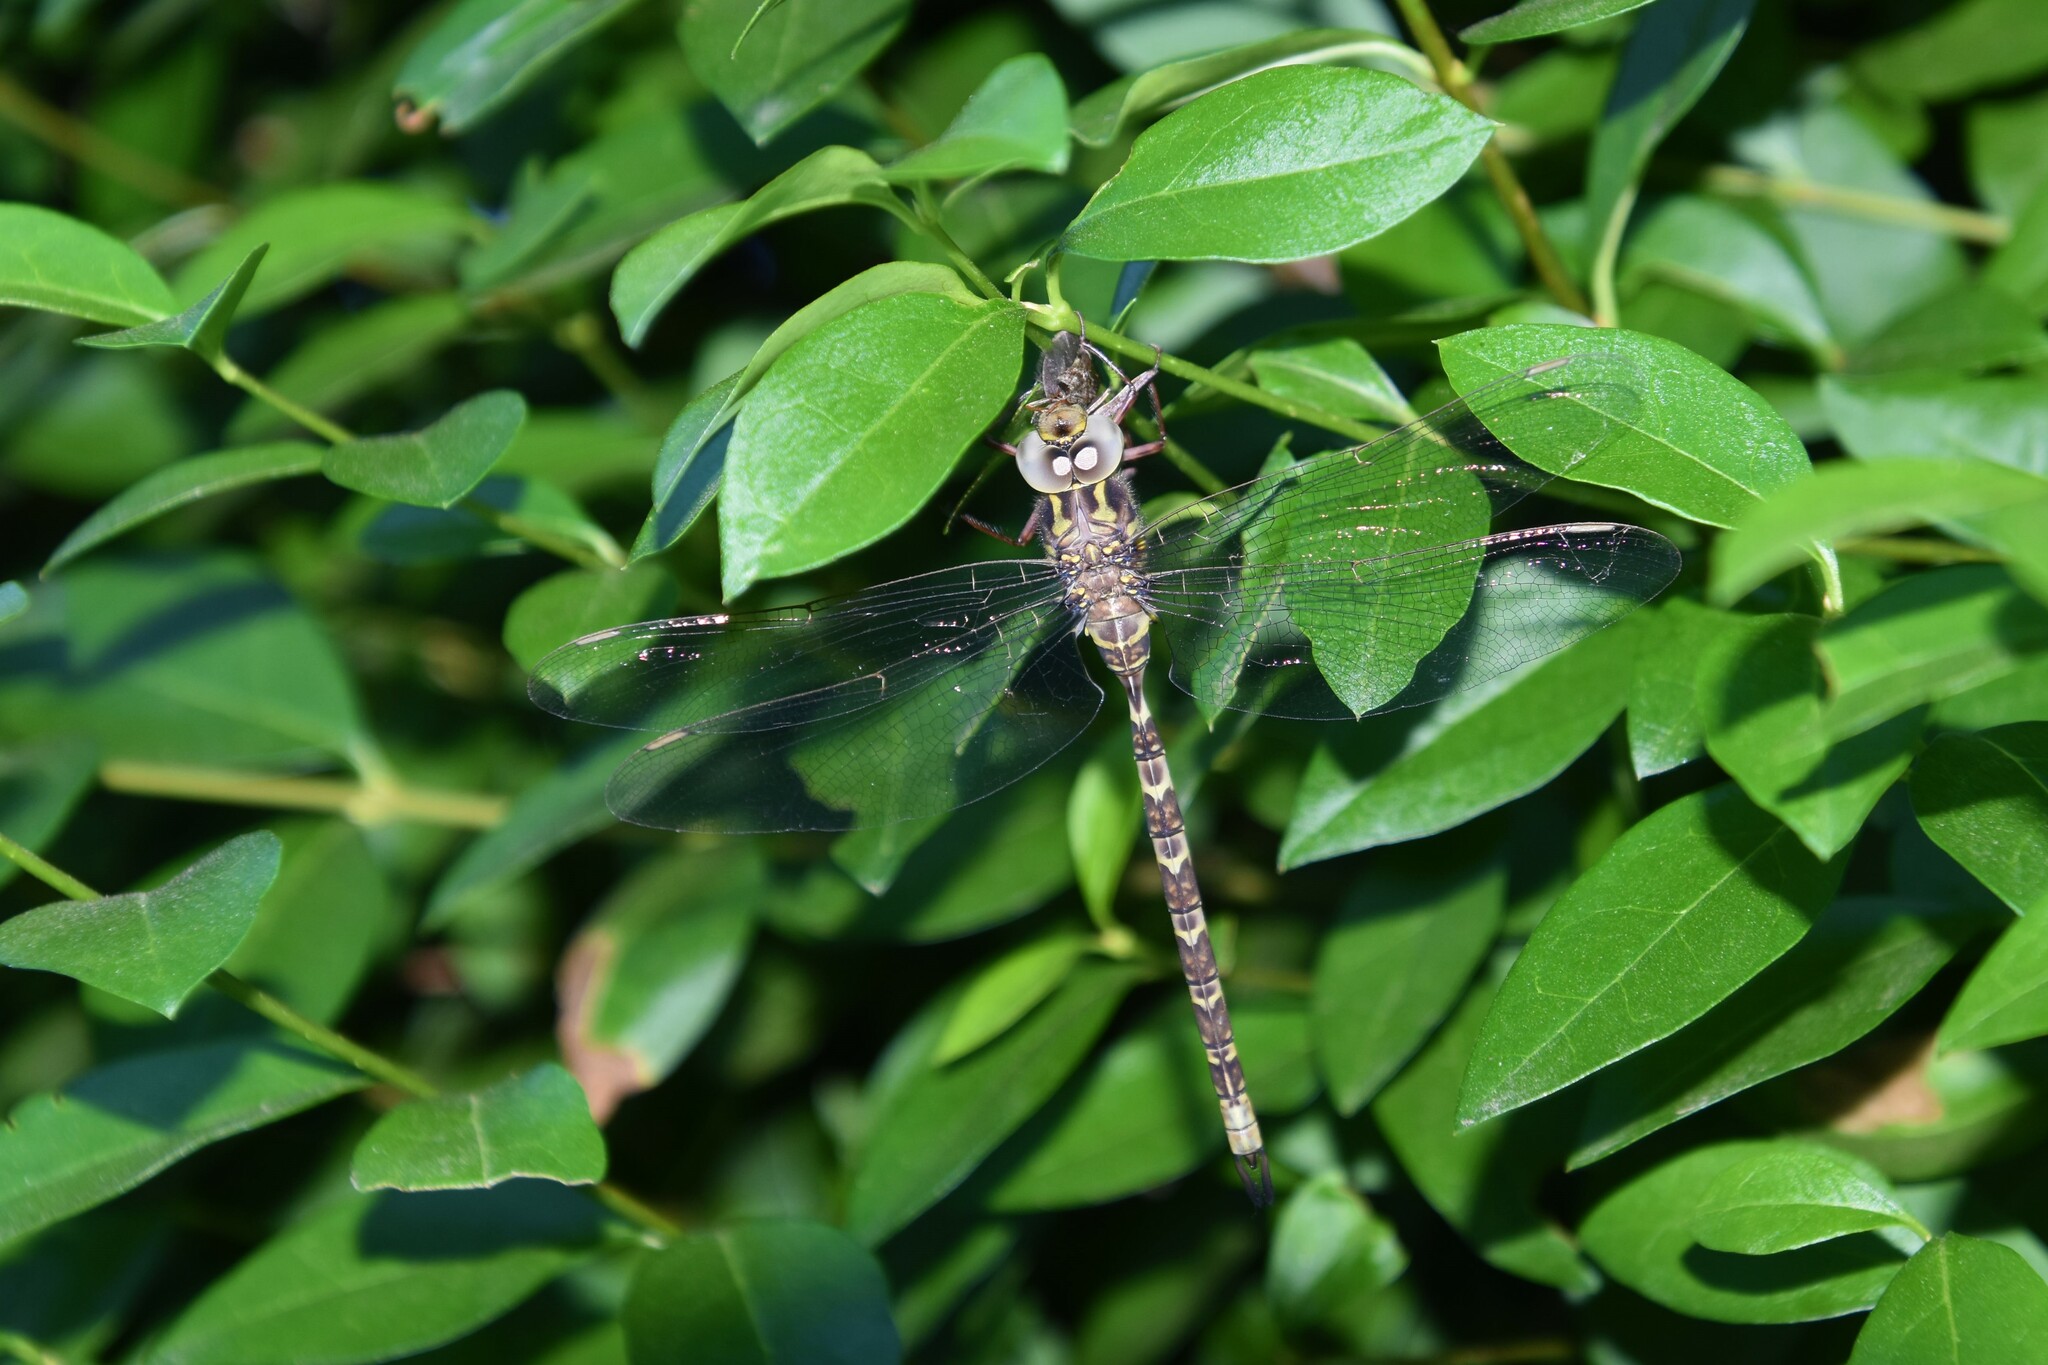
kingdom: Animalia
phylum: Arthropoda
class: Insecta
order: Odonata
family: Aeshnidae
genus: Boyeria
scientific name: Boyeria irene
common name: Western spectre
